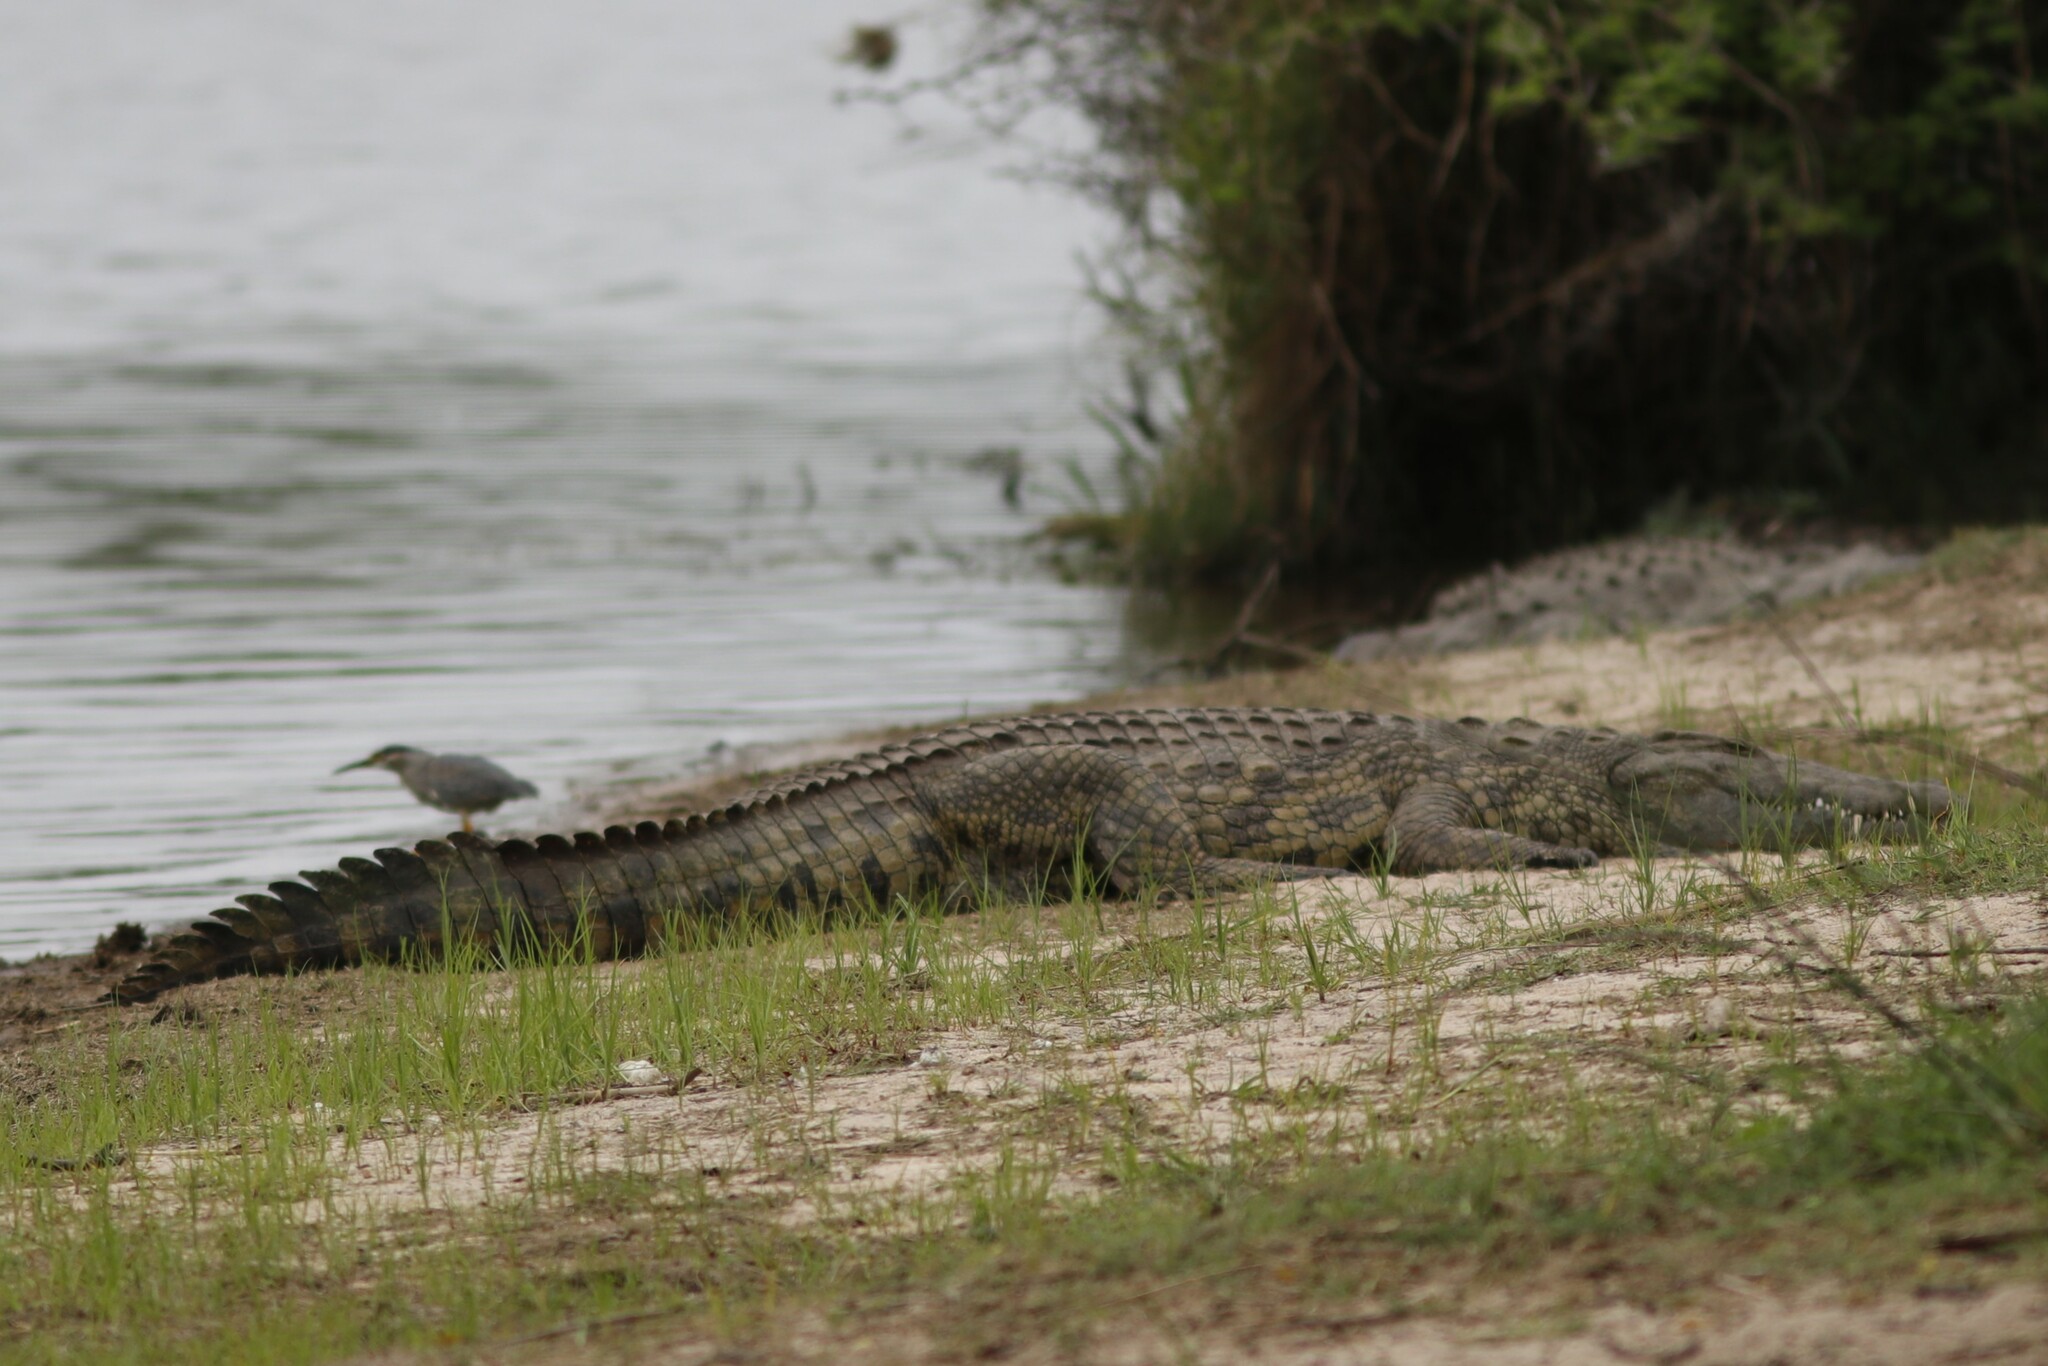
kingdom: Animalia
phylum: Chordata
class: Crocodylia
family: Crocodylidae
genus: Crocodylus
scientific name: Crocodylus niloticus
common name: Nile crocodile
